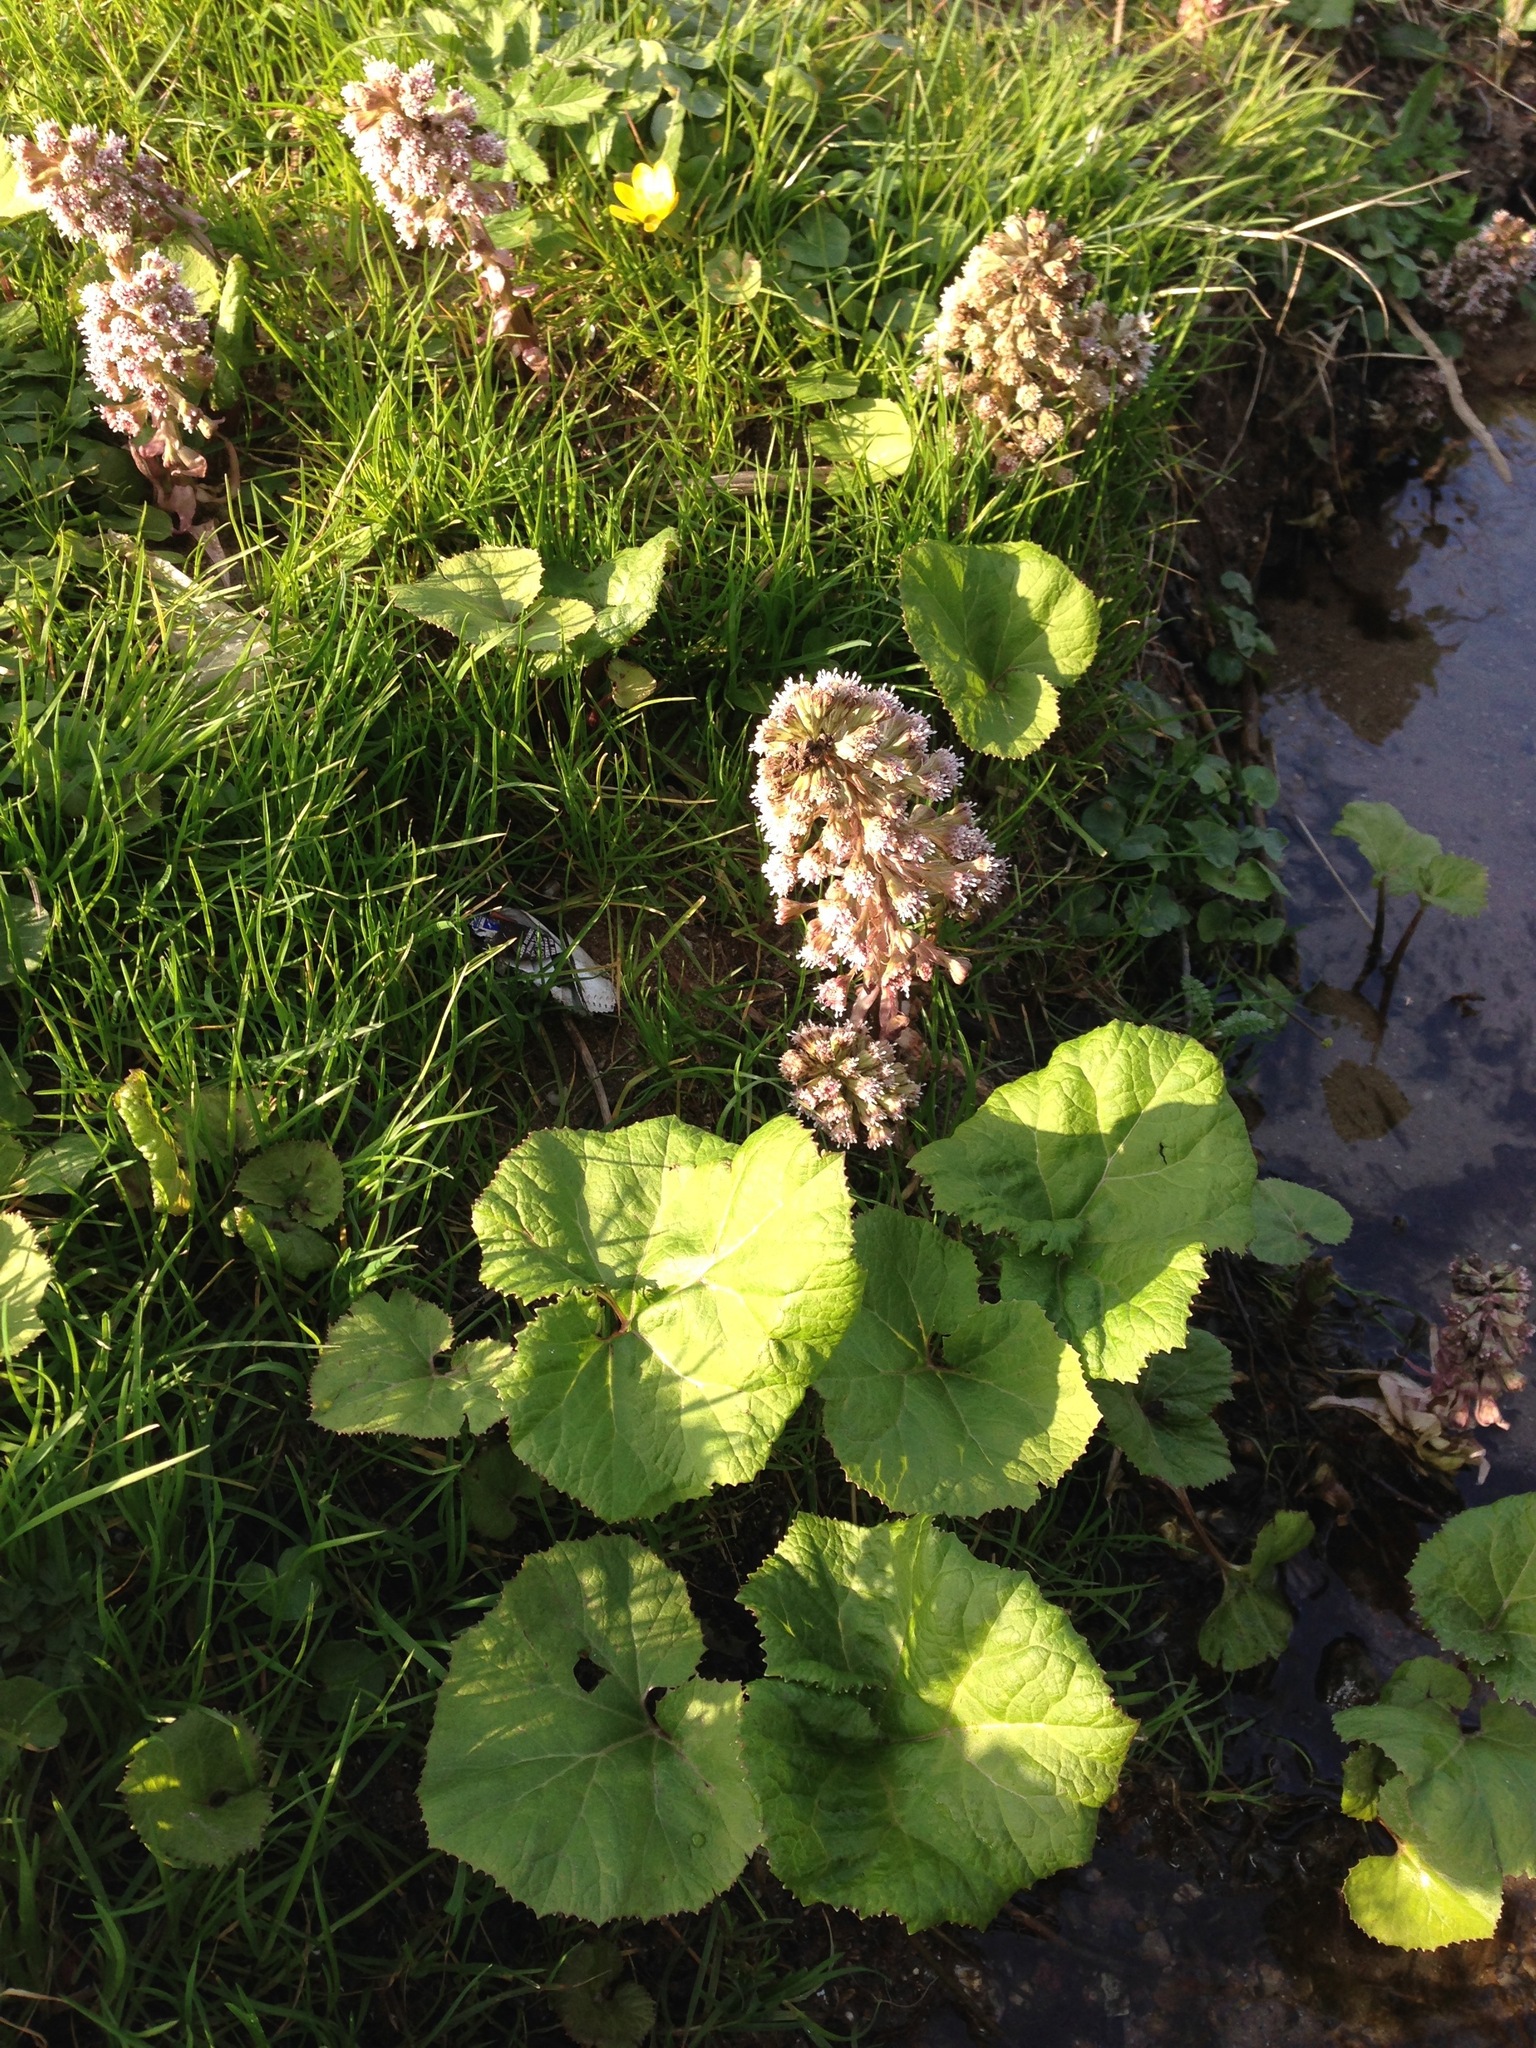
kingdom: Plantae
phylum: Tracheophyta
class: Magnoliopsida
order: Asterales
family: Asteraceae
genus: Petasites
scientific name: Petasites hybridus
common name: Butterbur
